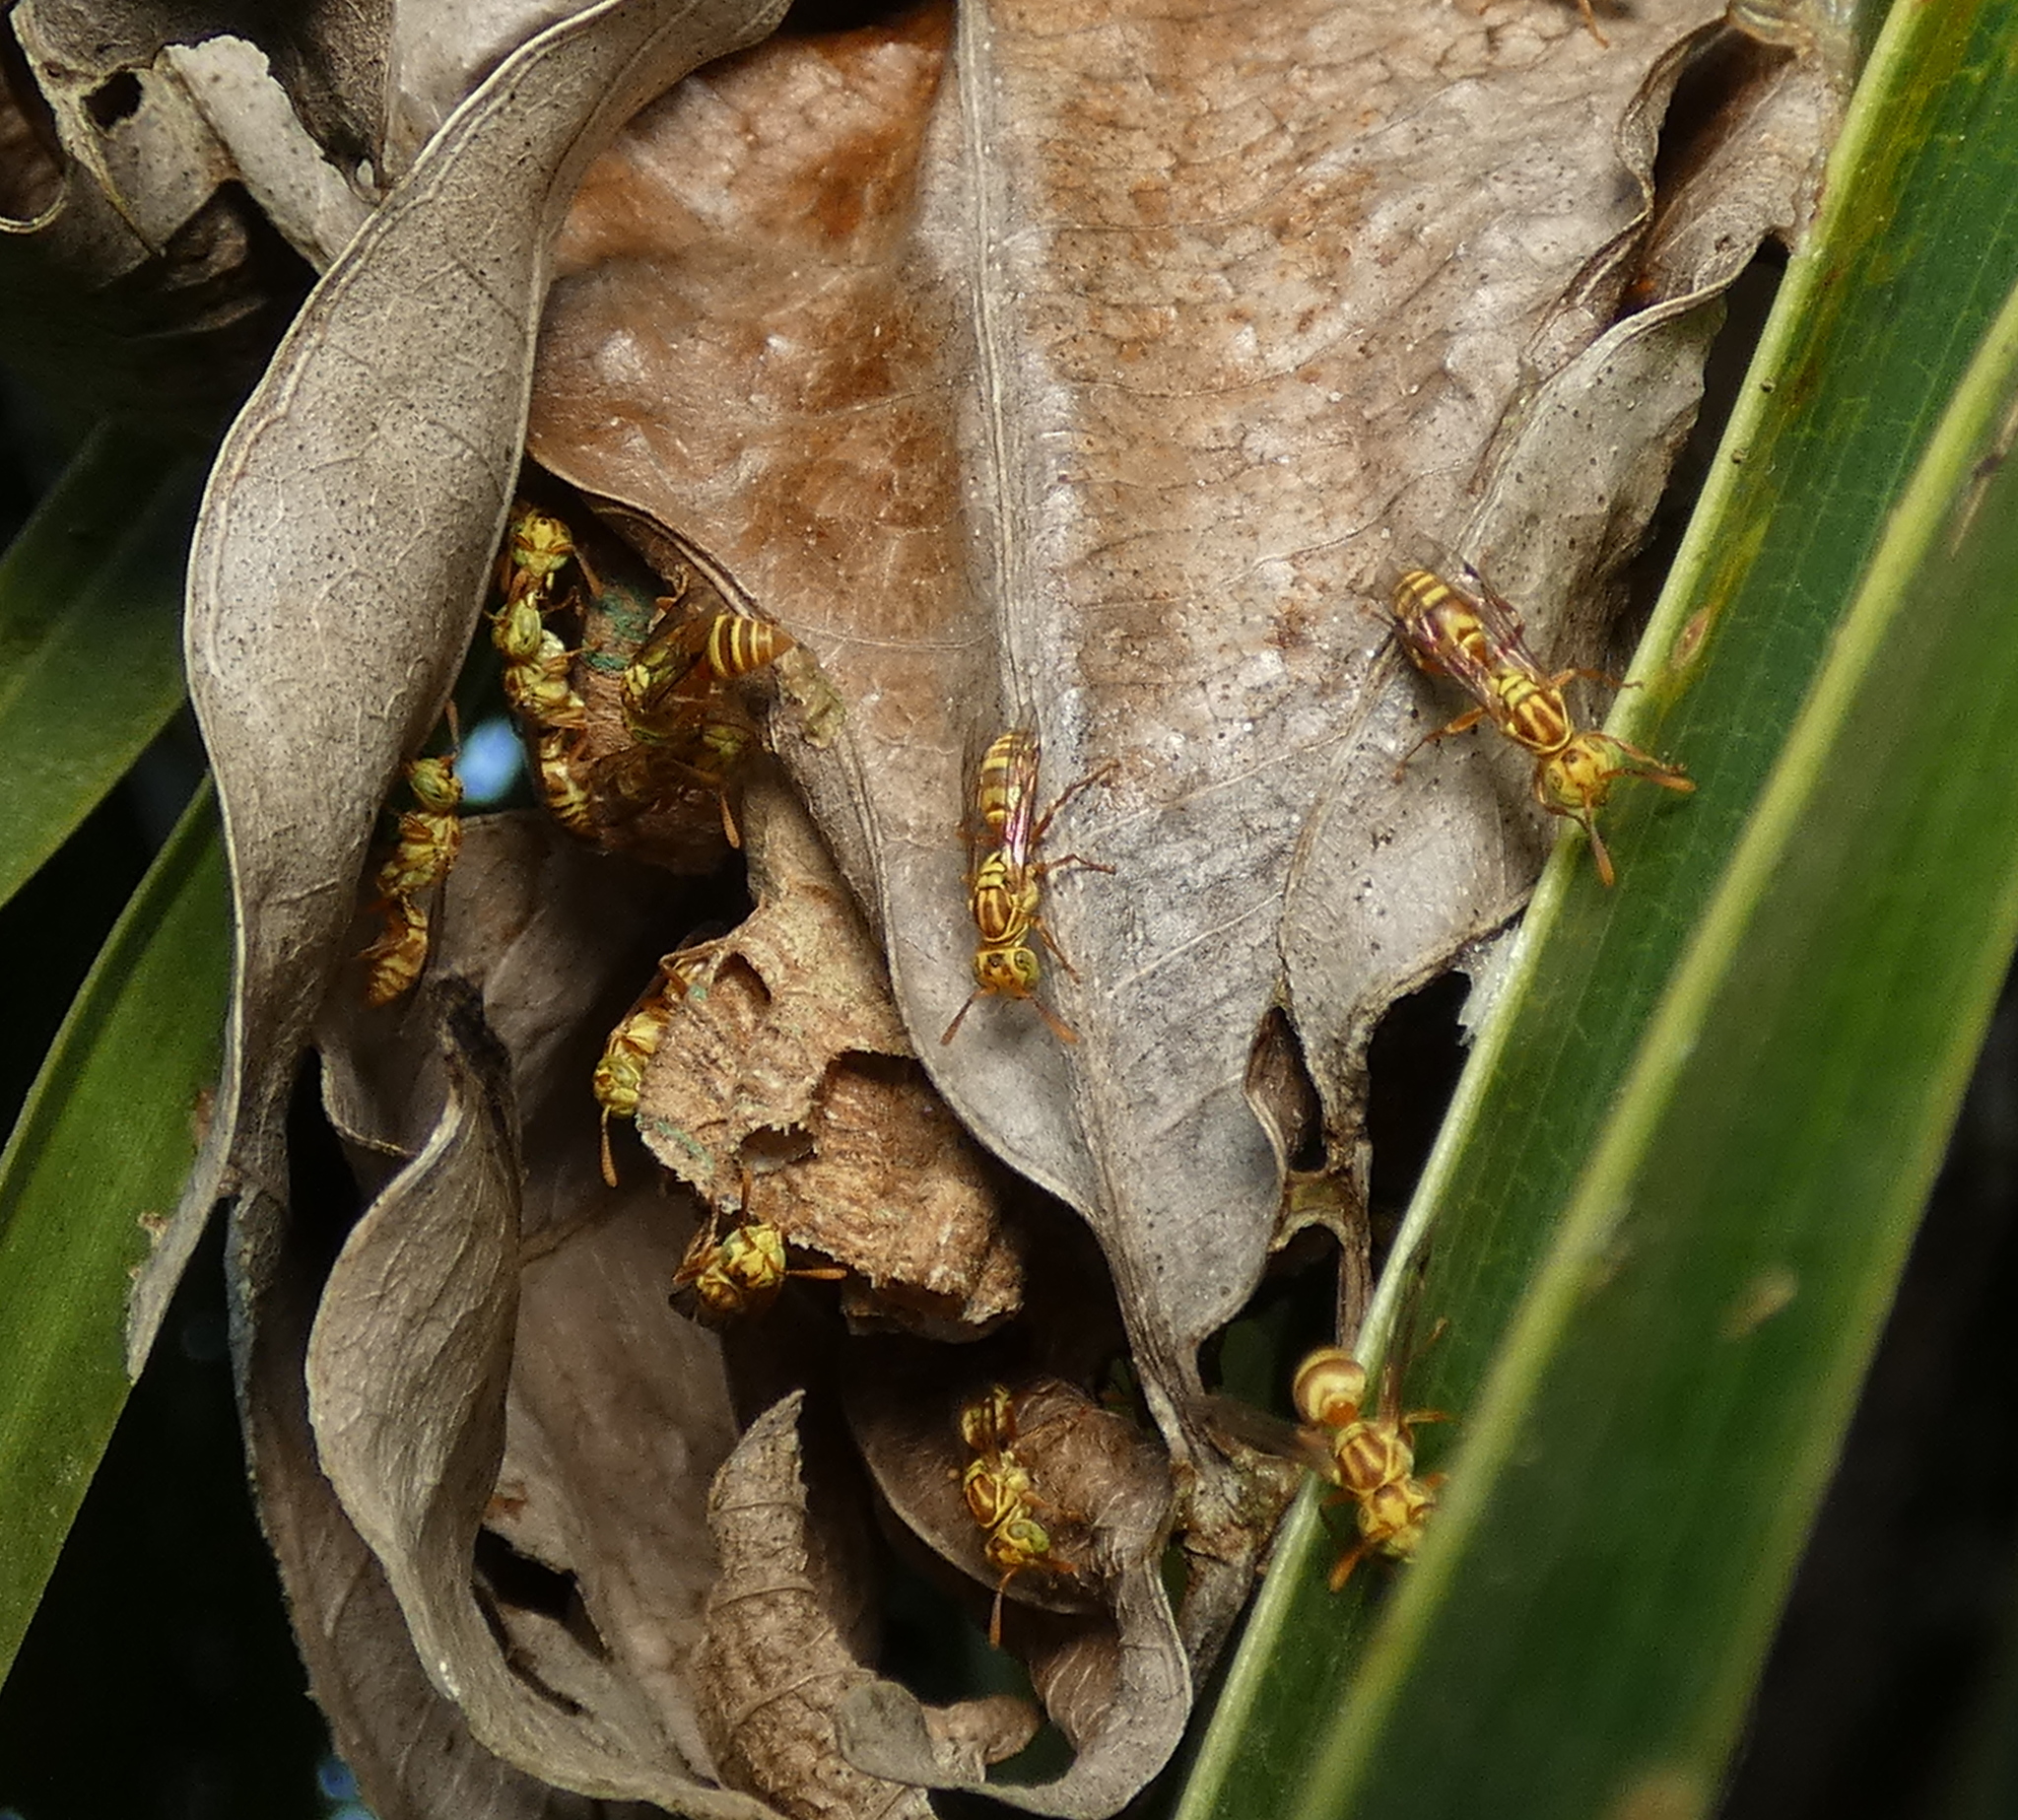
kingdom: Animalia
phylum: Arthropoda
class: Insecta
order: Hymenoptera
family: Vespidae
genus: Protopolybia
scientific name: Protopolybia potiguara
